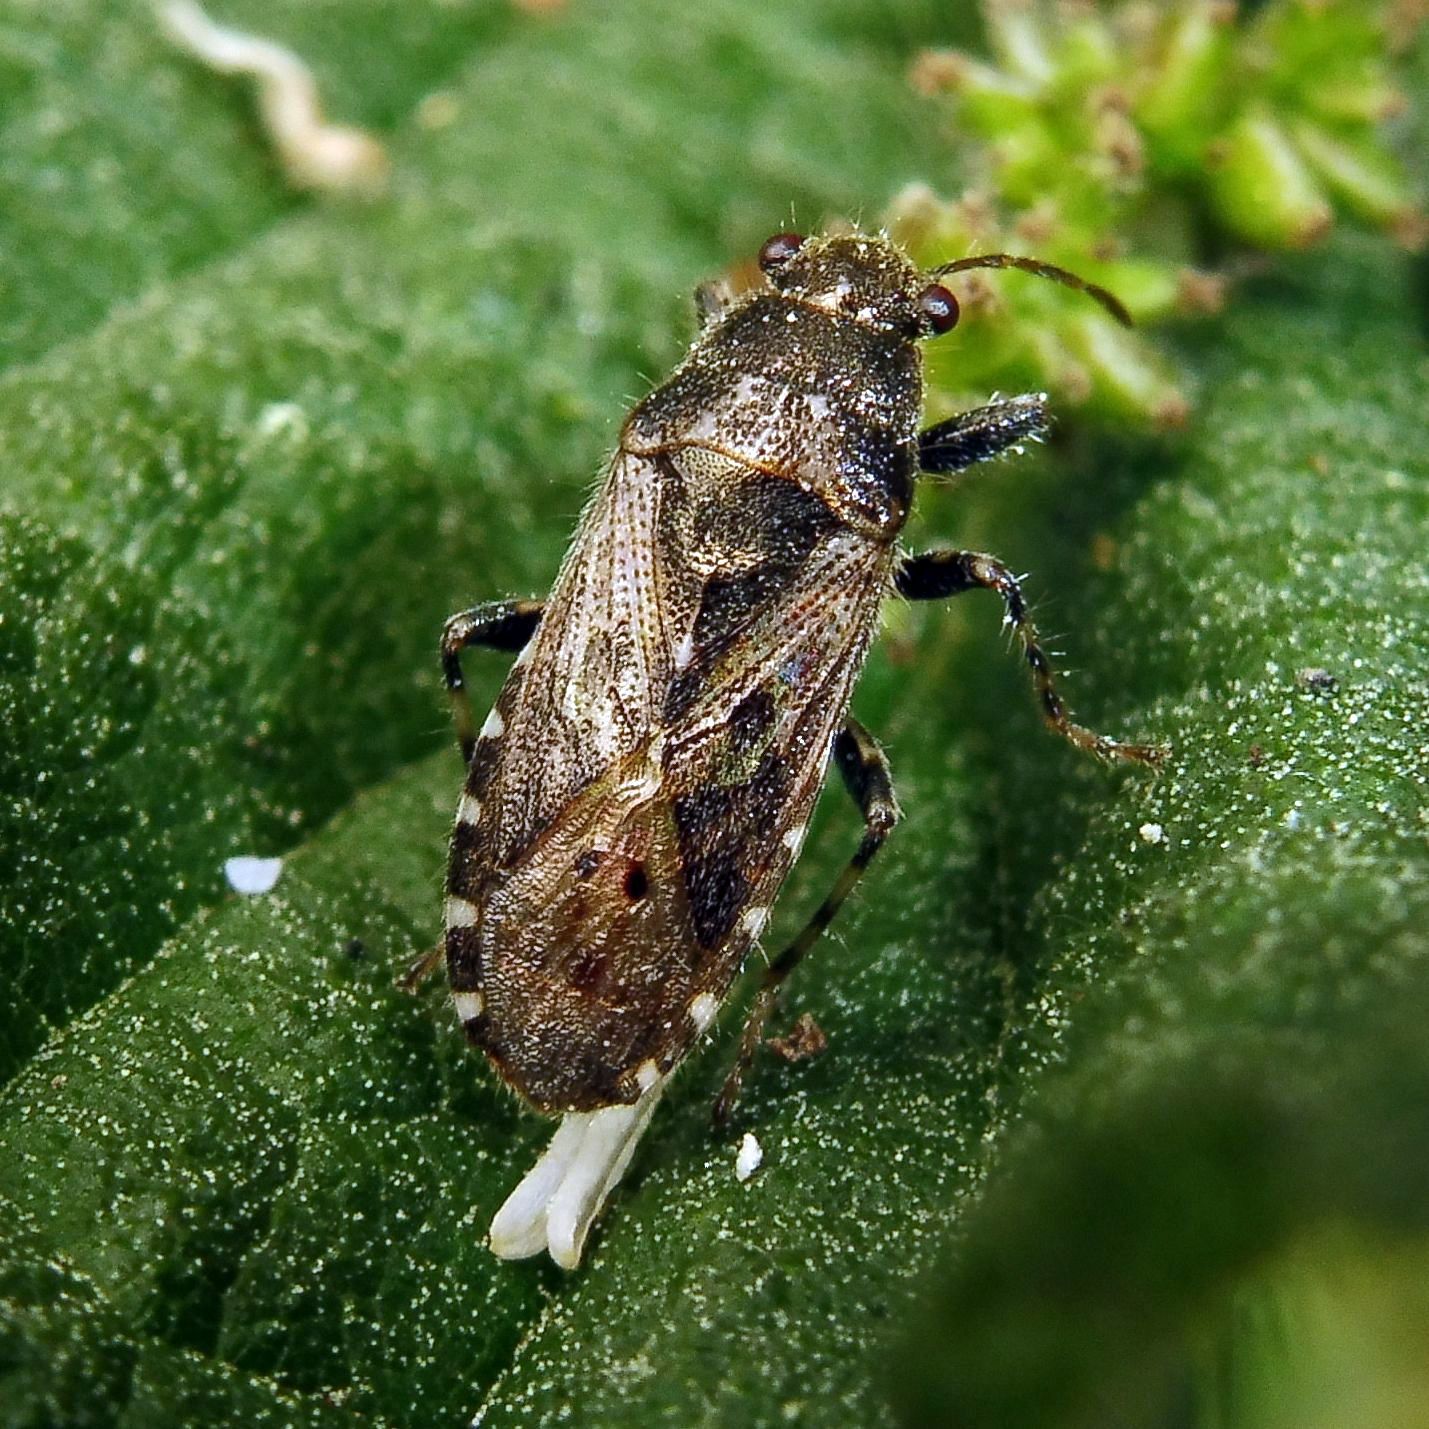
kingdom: Animalia
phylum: Arthropoda
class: Insecta
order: Hemiptera
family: Heterogastridae
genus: Heterogaster
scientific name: Heterogaster urticae
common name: Seed bug
